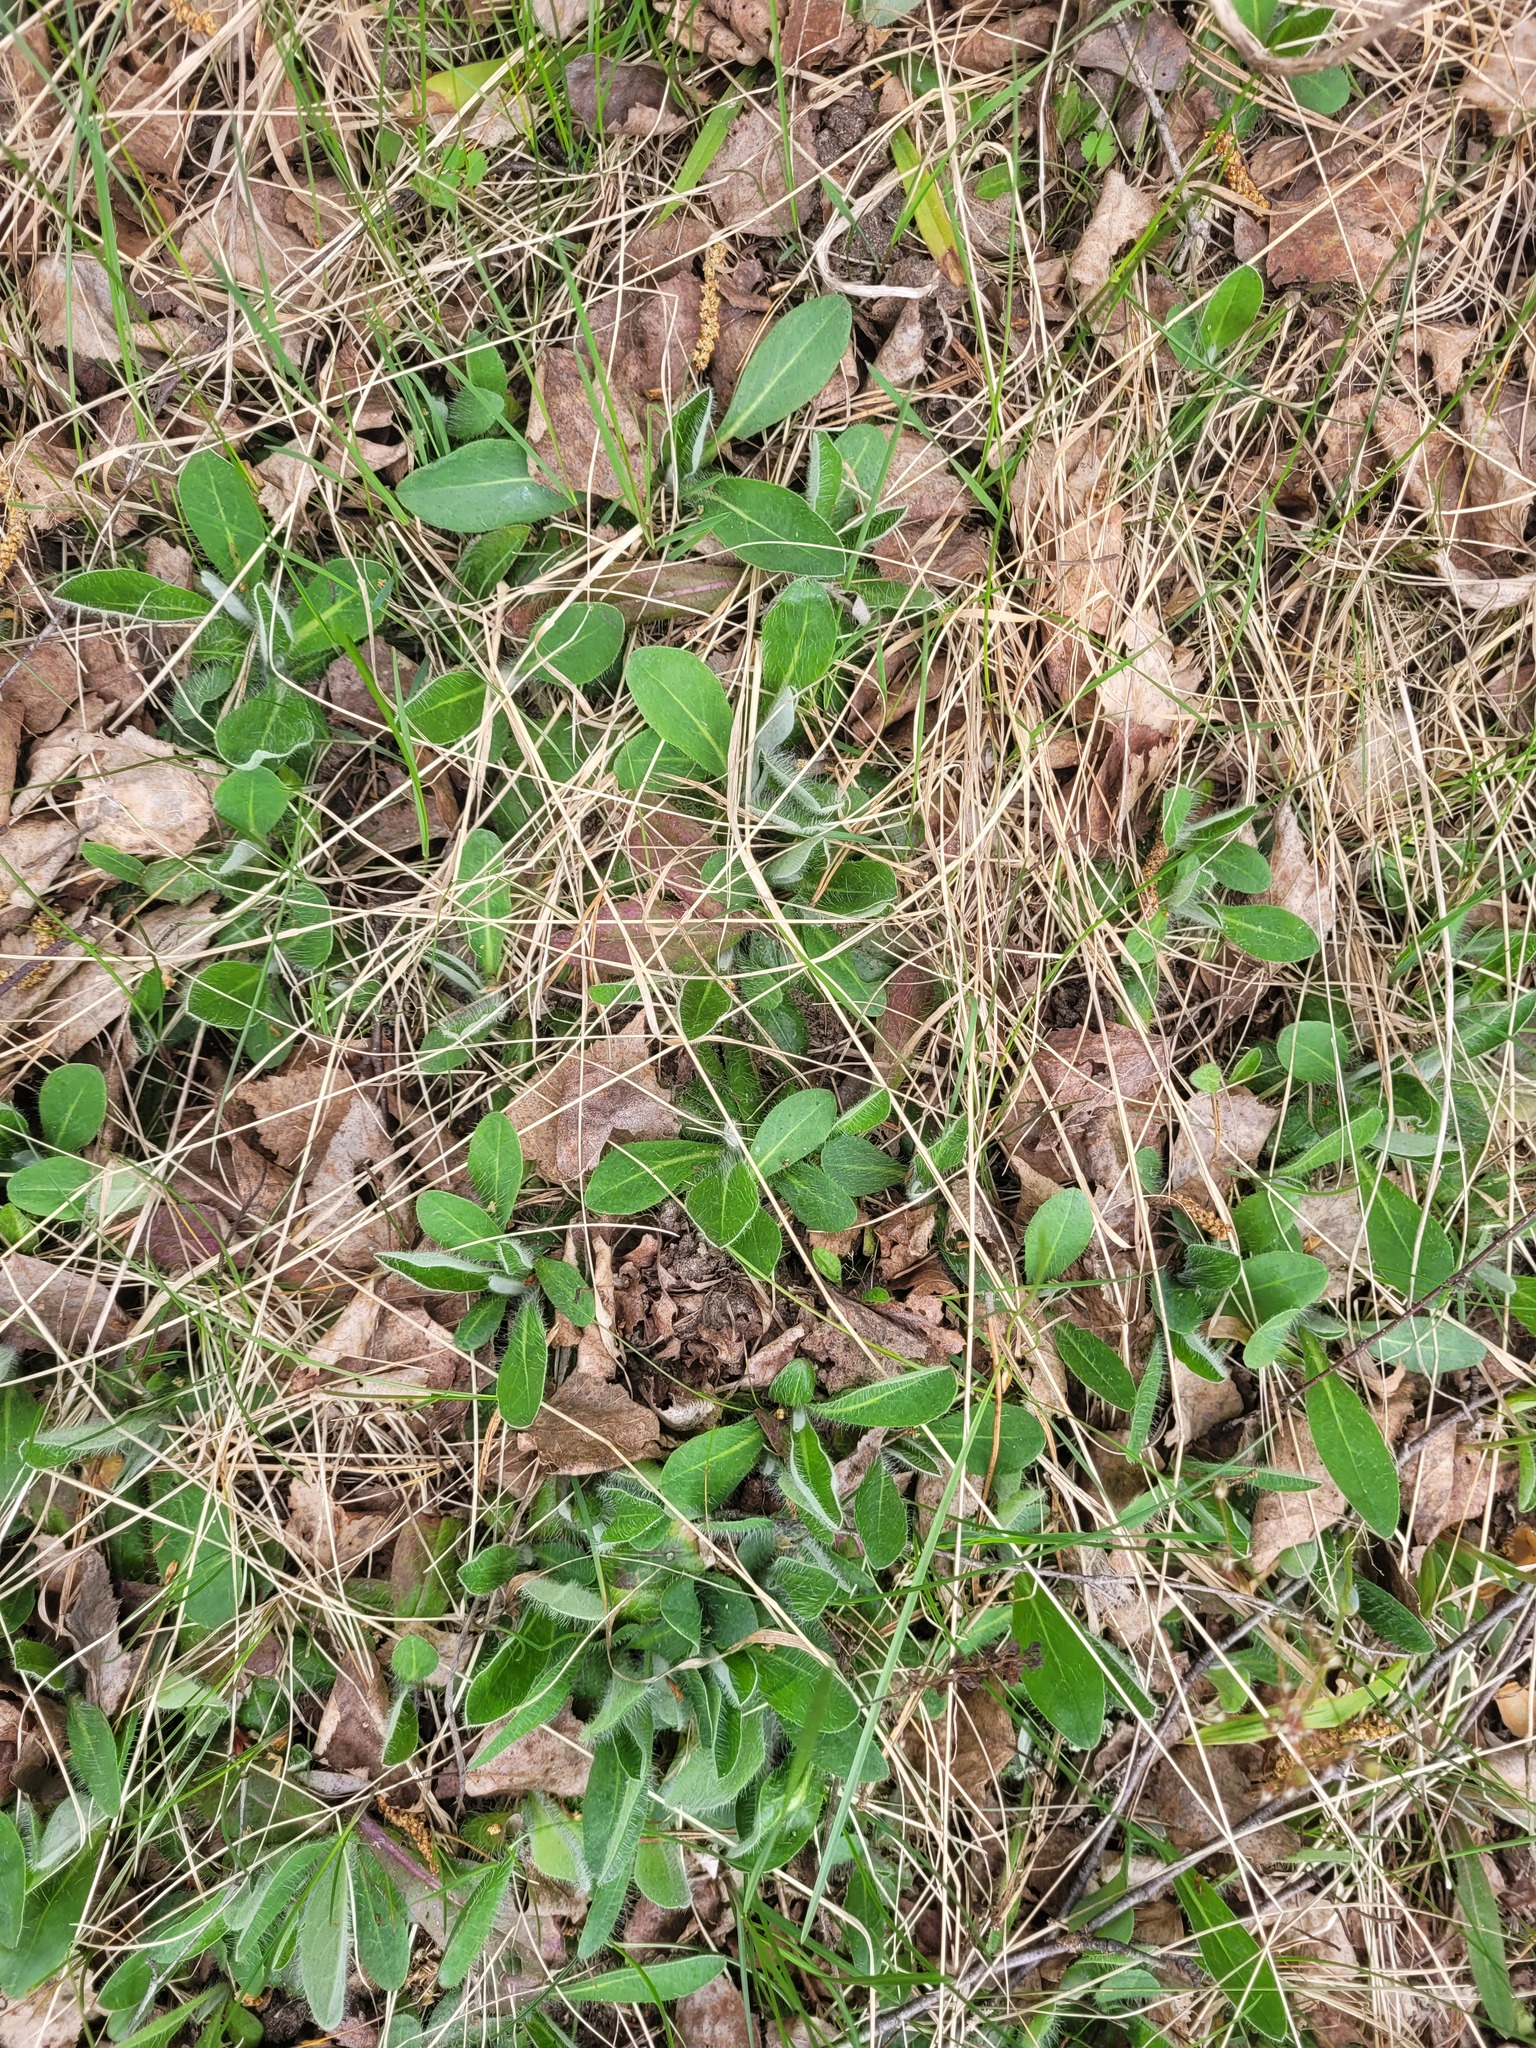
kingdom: Plantae
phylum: Tracheophyta
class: Magnoliopsida
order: Asterales
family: Asteraceae
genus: Pilosella
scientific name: Pilosella officinarum
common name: Mouse-ear hawkweed
